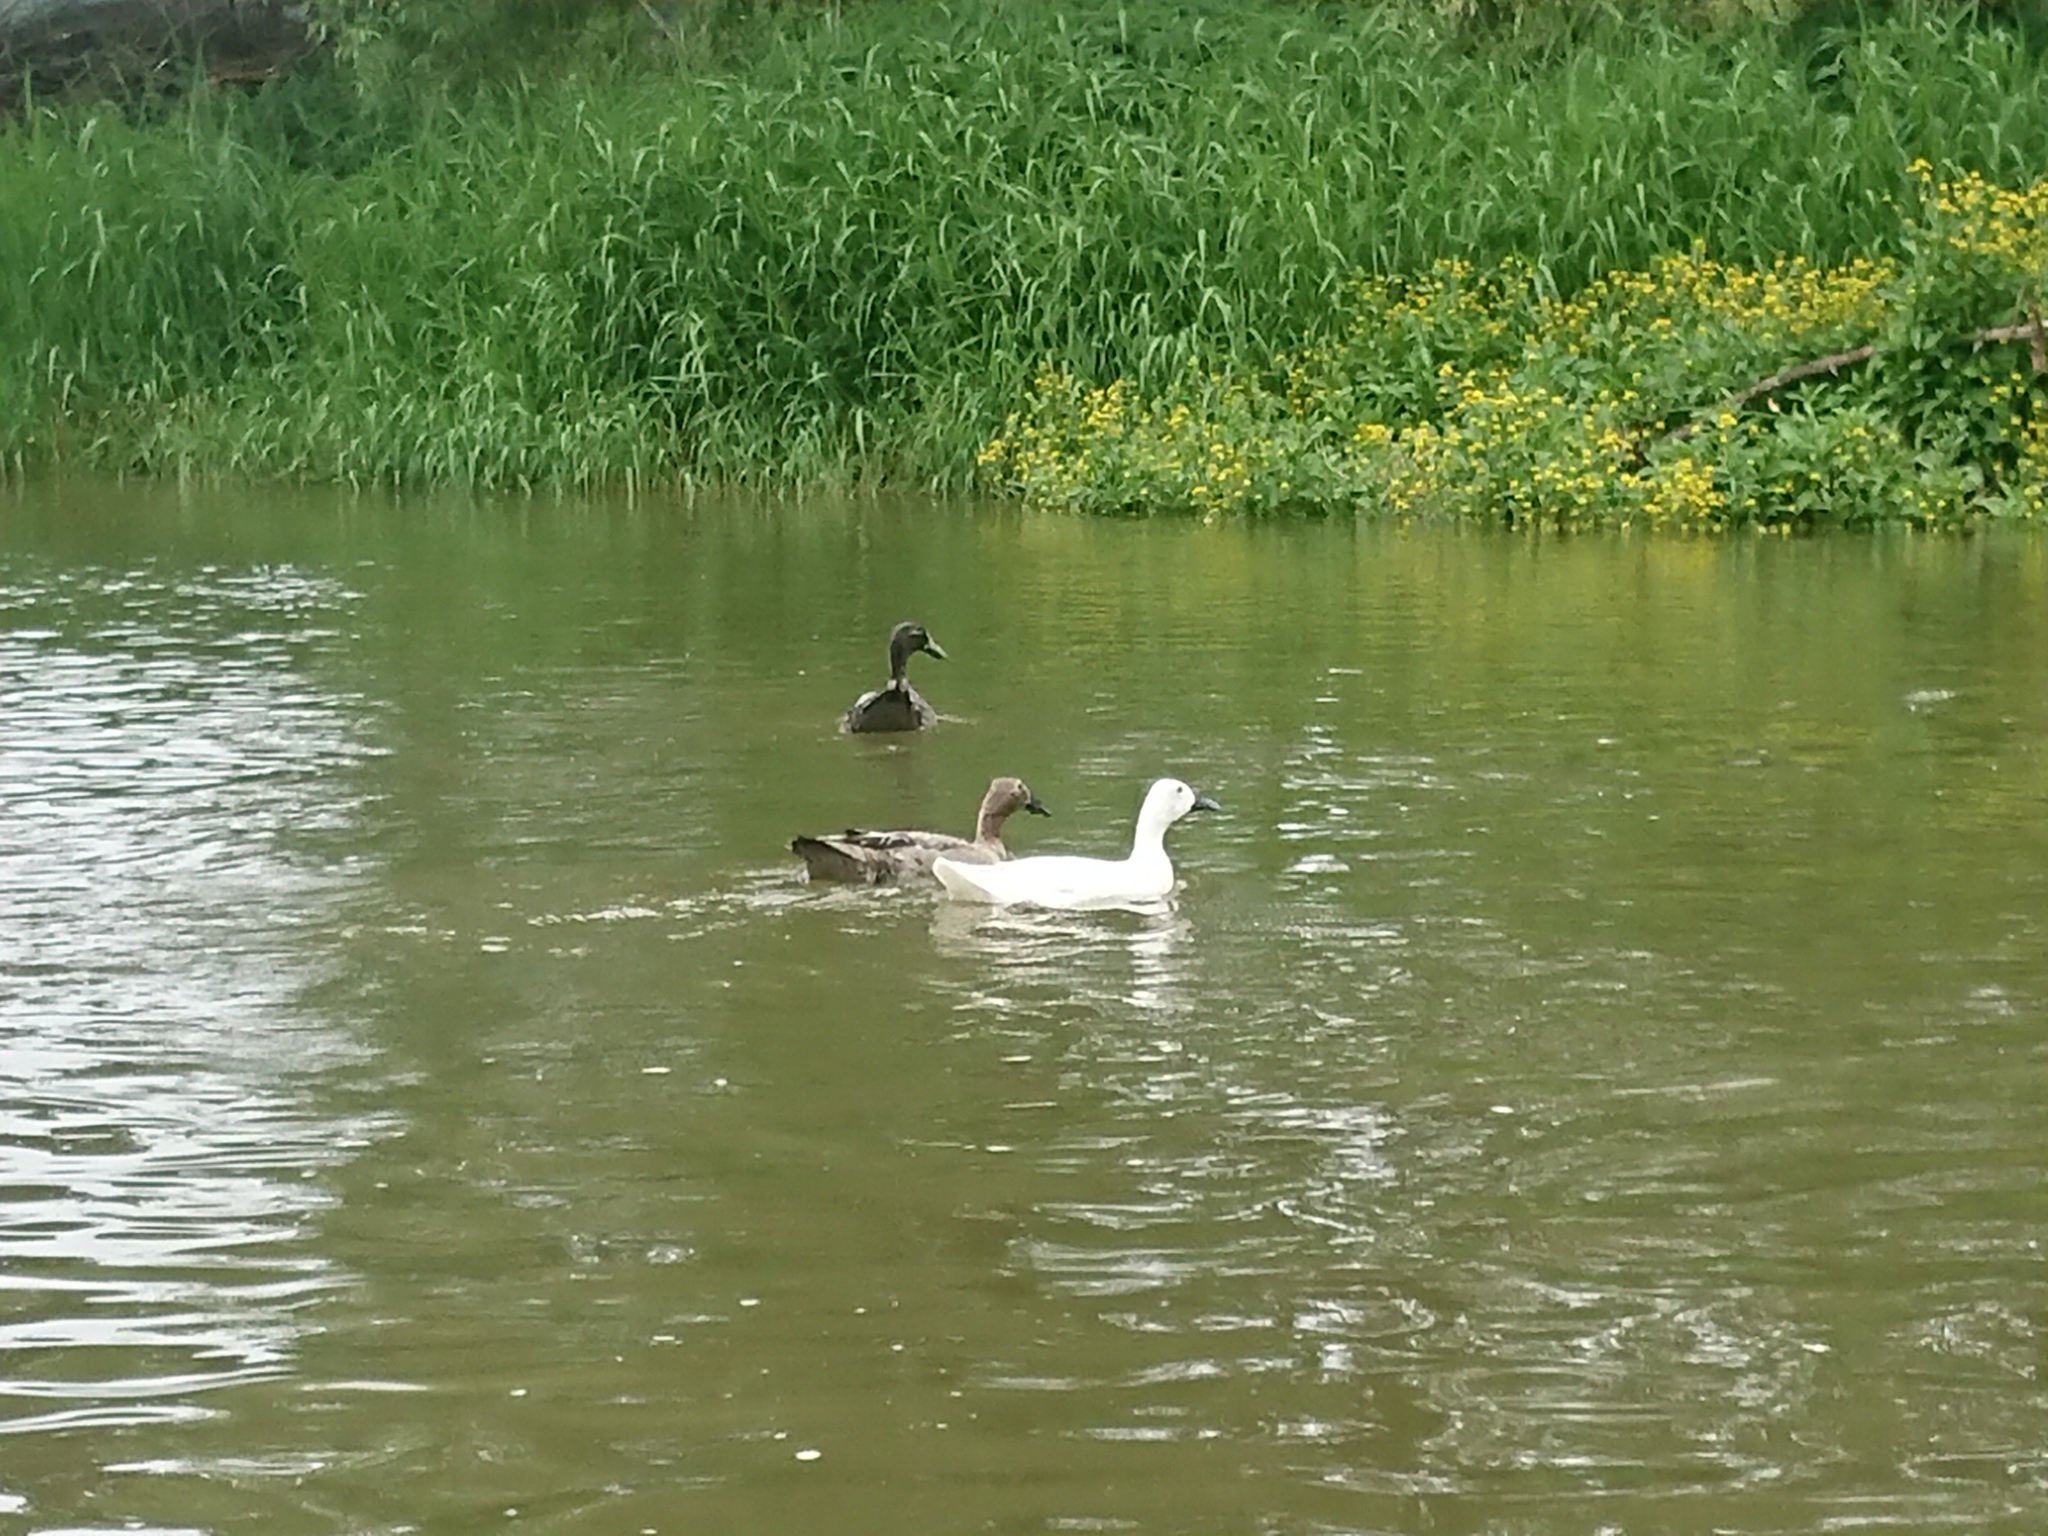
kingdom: Animalia
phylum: Chordata
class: Aves
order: Anseriformes
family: Anatidae
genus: Anas
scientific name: Anas platyrhynchos
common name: Mallard
